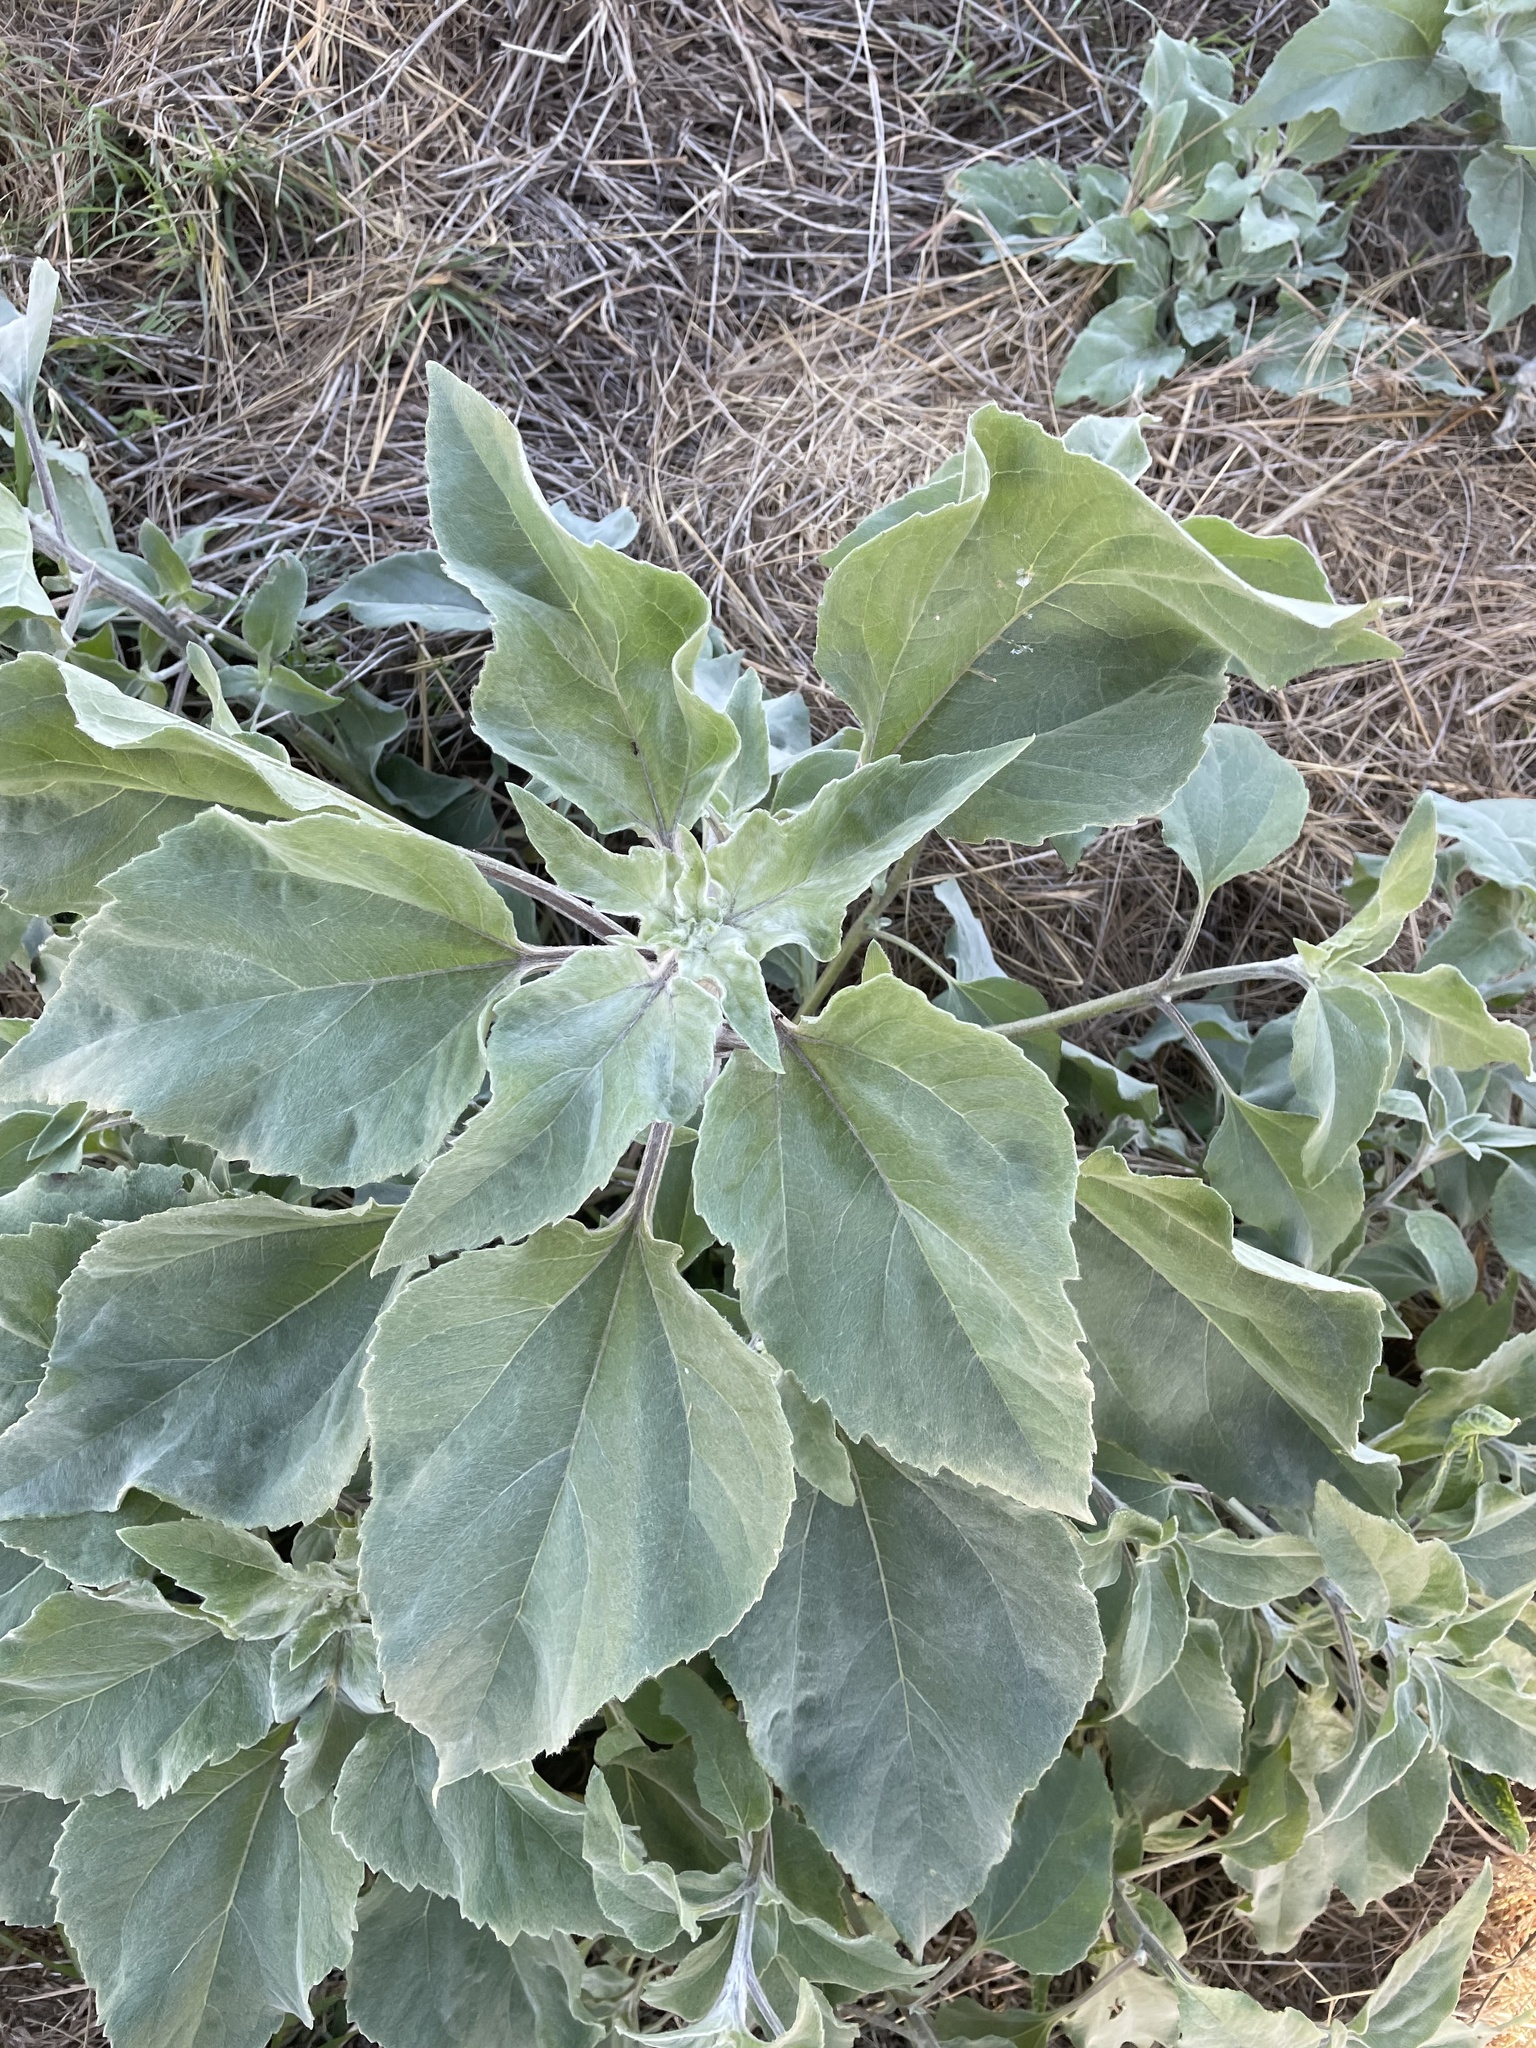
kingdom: Plantae
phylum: Tracheophyta
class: Magnoliopsida
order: Asterales
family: Asteraceae
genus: Helianthus
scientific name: Helianthus argophyllus
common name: Silverleaf sunflower
